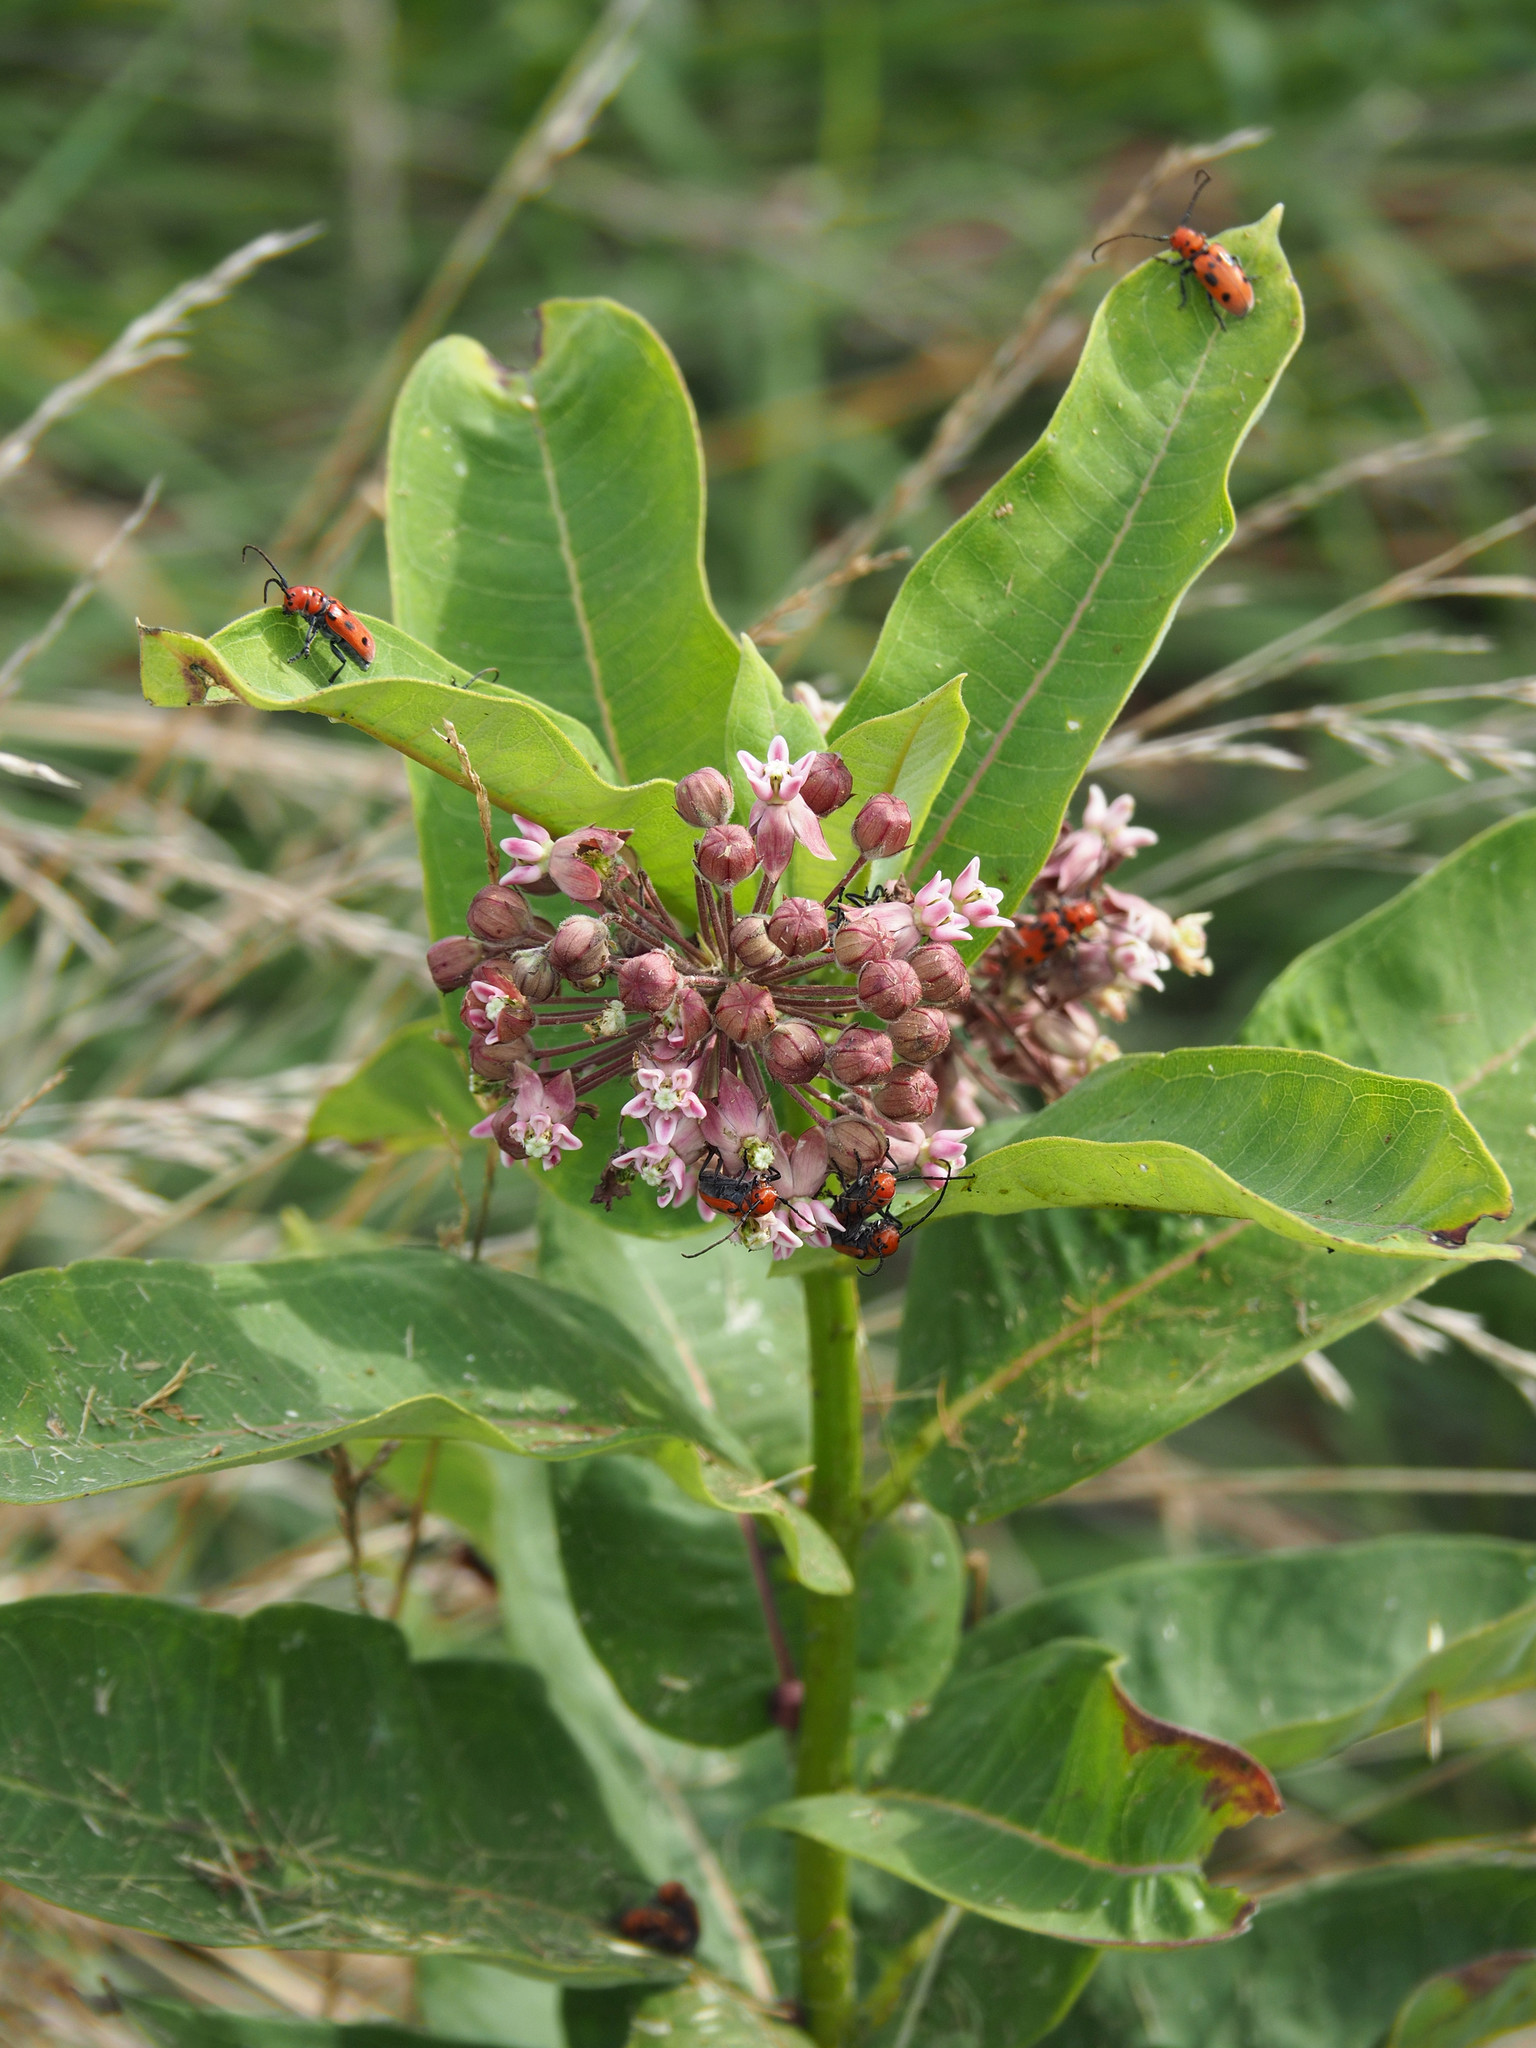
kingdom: Plantae
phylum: Tracheophyta
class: Magnoliopsida
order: Gentianales
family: Apocynaceae
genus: Asclepias
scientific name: Asclepias syriaca
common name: Common milkweed
